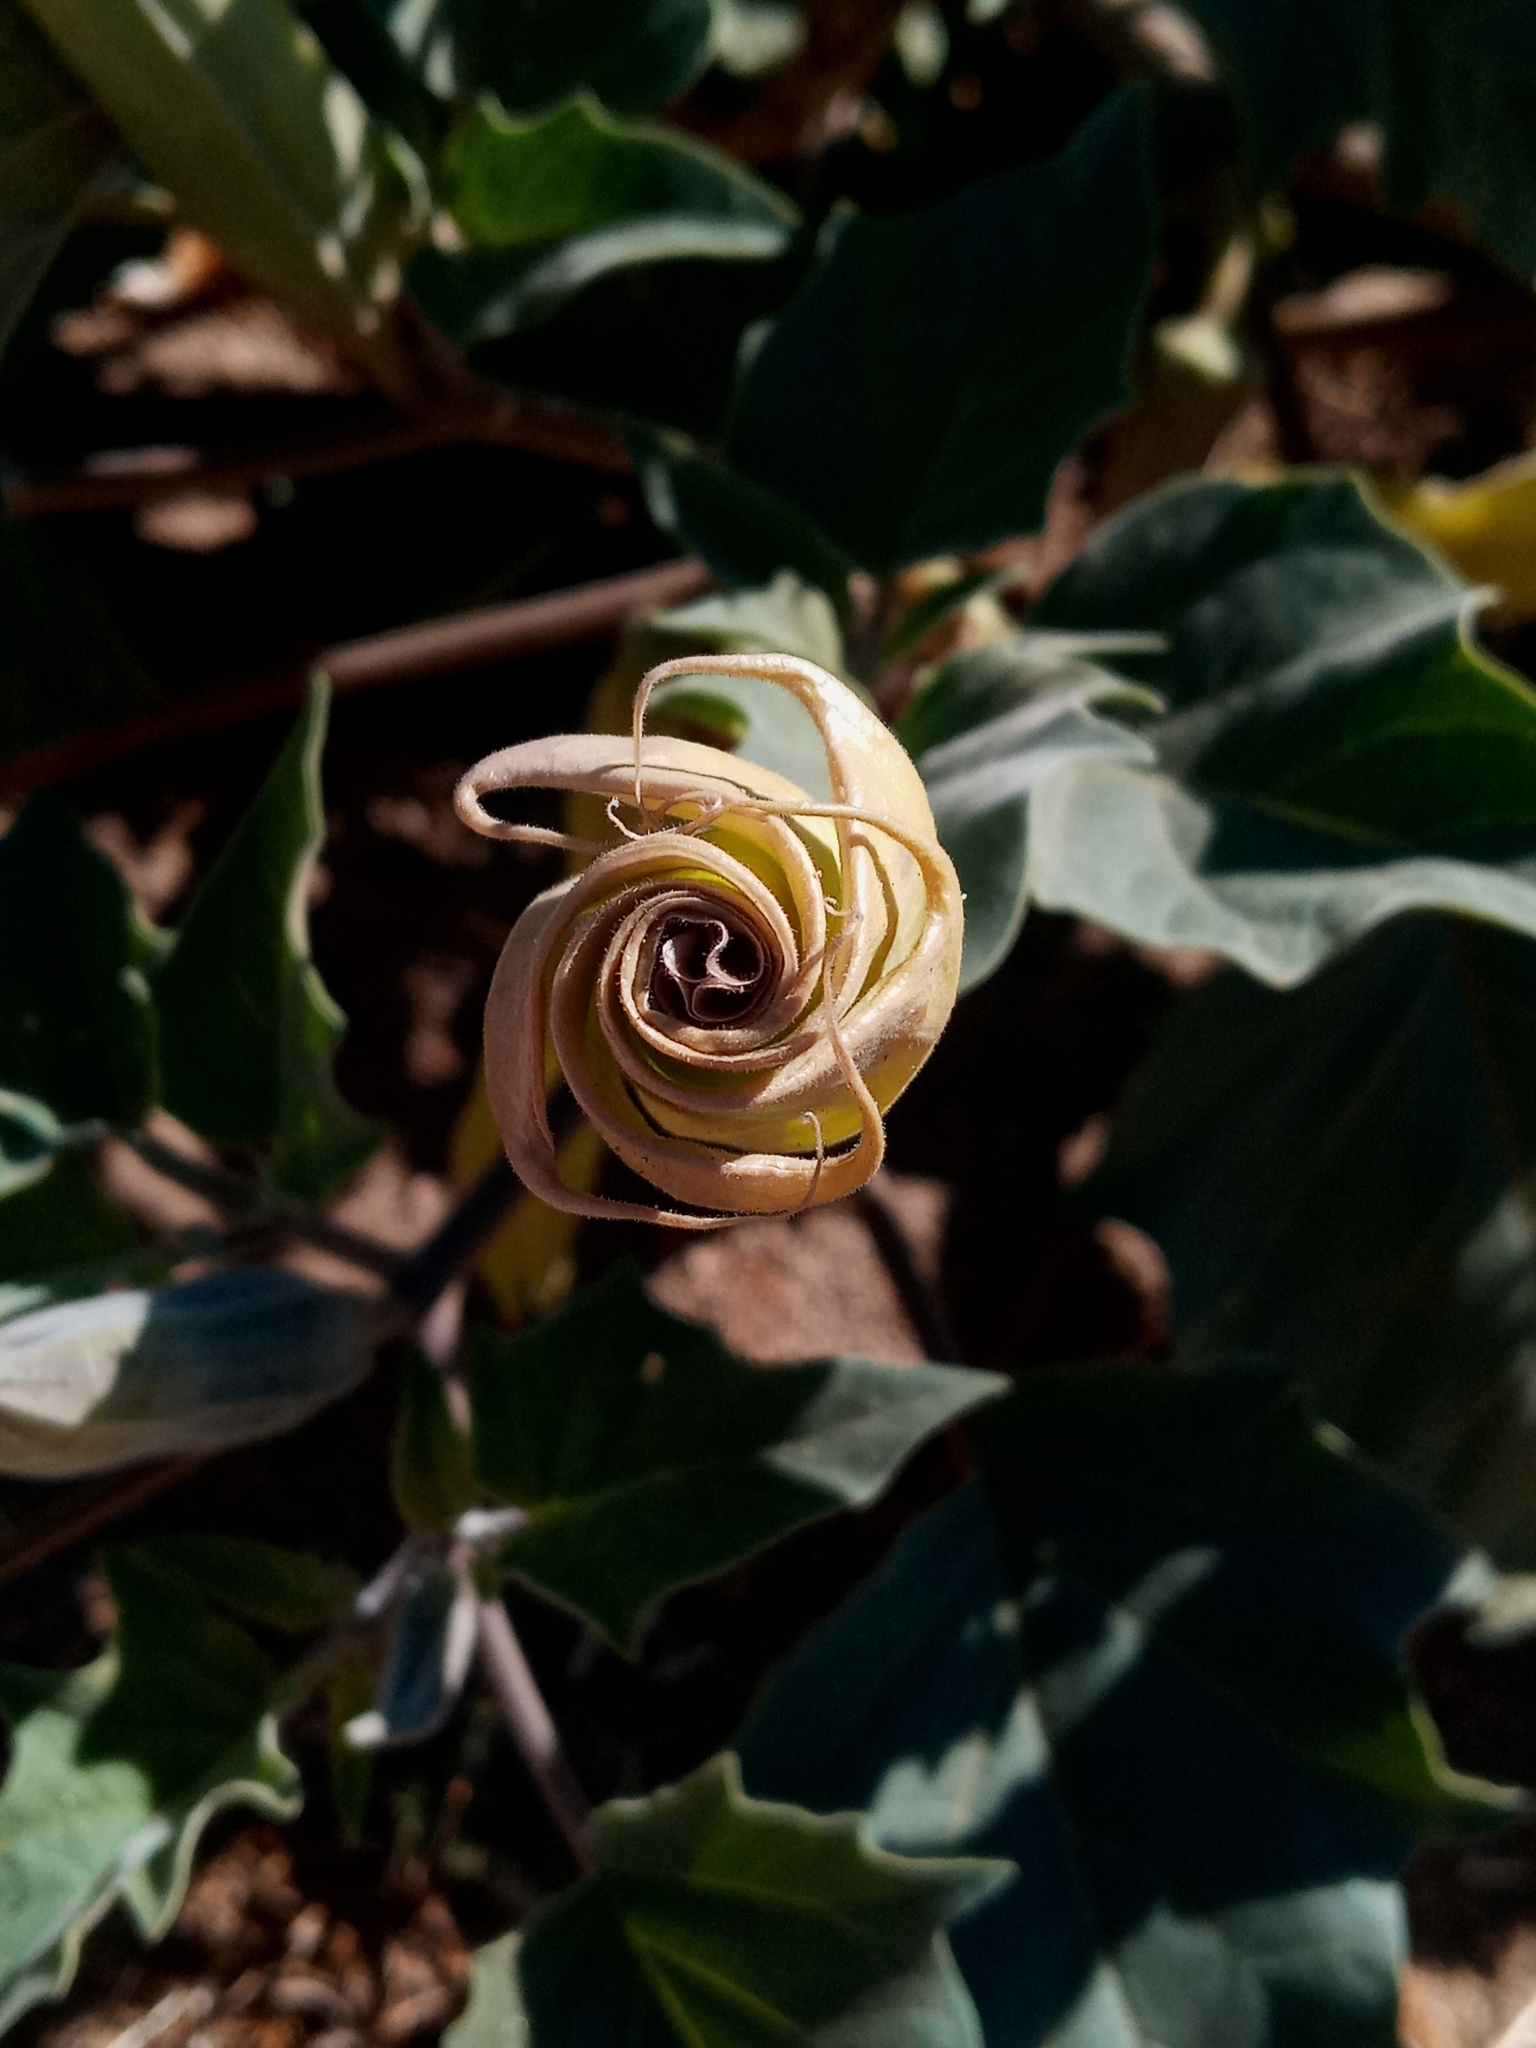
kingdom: Plantae
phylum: Tracheophyta
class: Magnoliopsida
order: Solanales
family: Solanaceae
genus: Datura
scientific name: Datura wrightii
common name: Sacred thorn-apple
